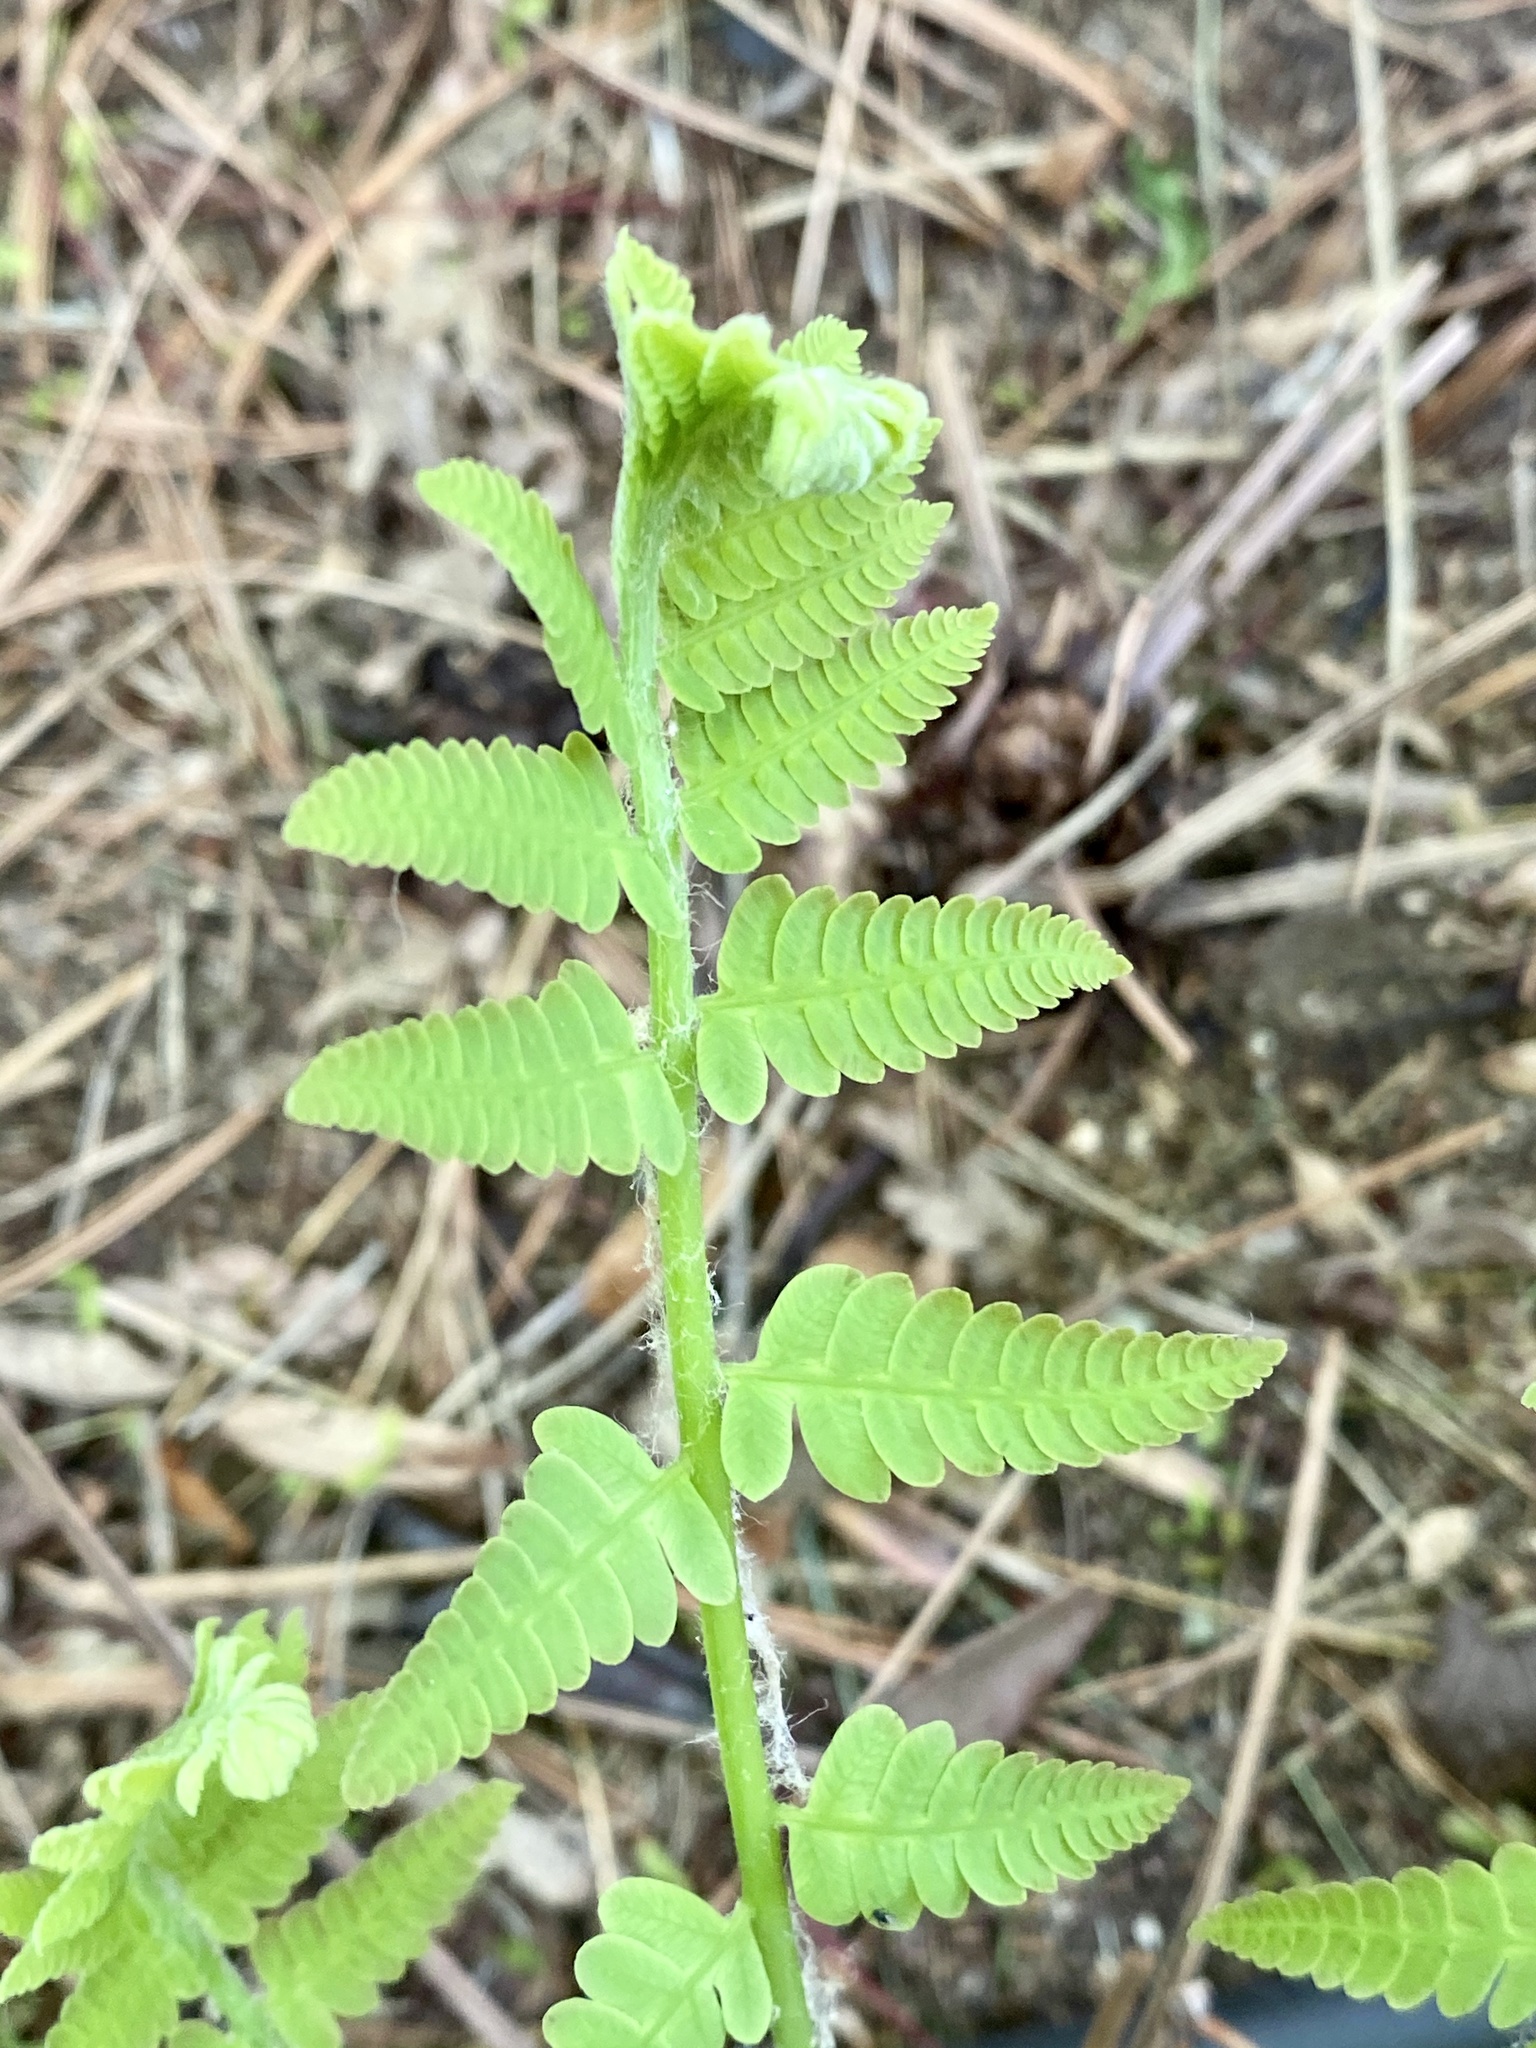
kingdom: Plantae
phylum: Tracheophyta
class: Polypodiopsida
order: Osmundales
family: Osmundaceae
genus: Claytosmunda
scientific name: Claytosmunda claytoniana
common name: Clayton's fern
